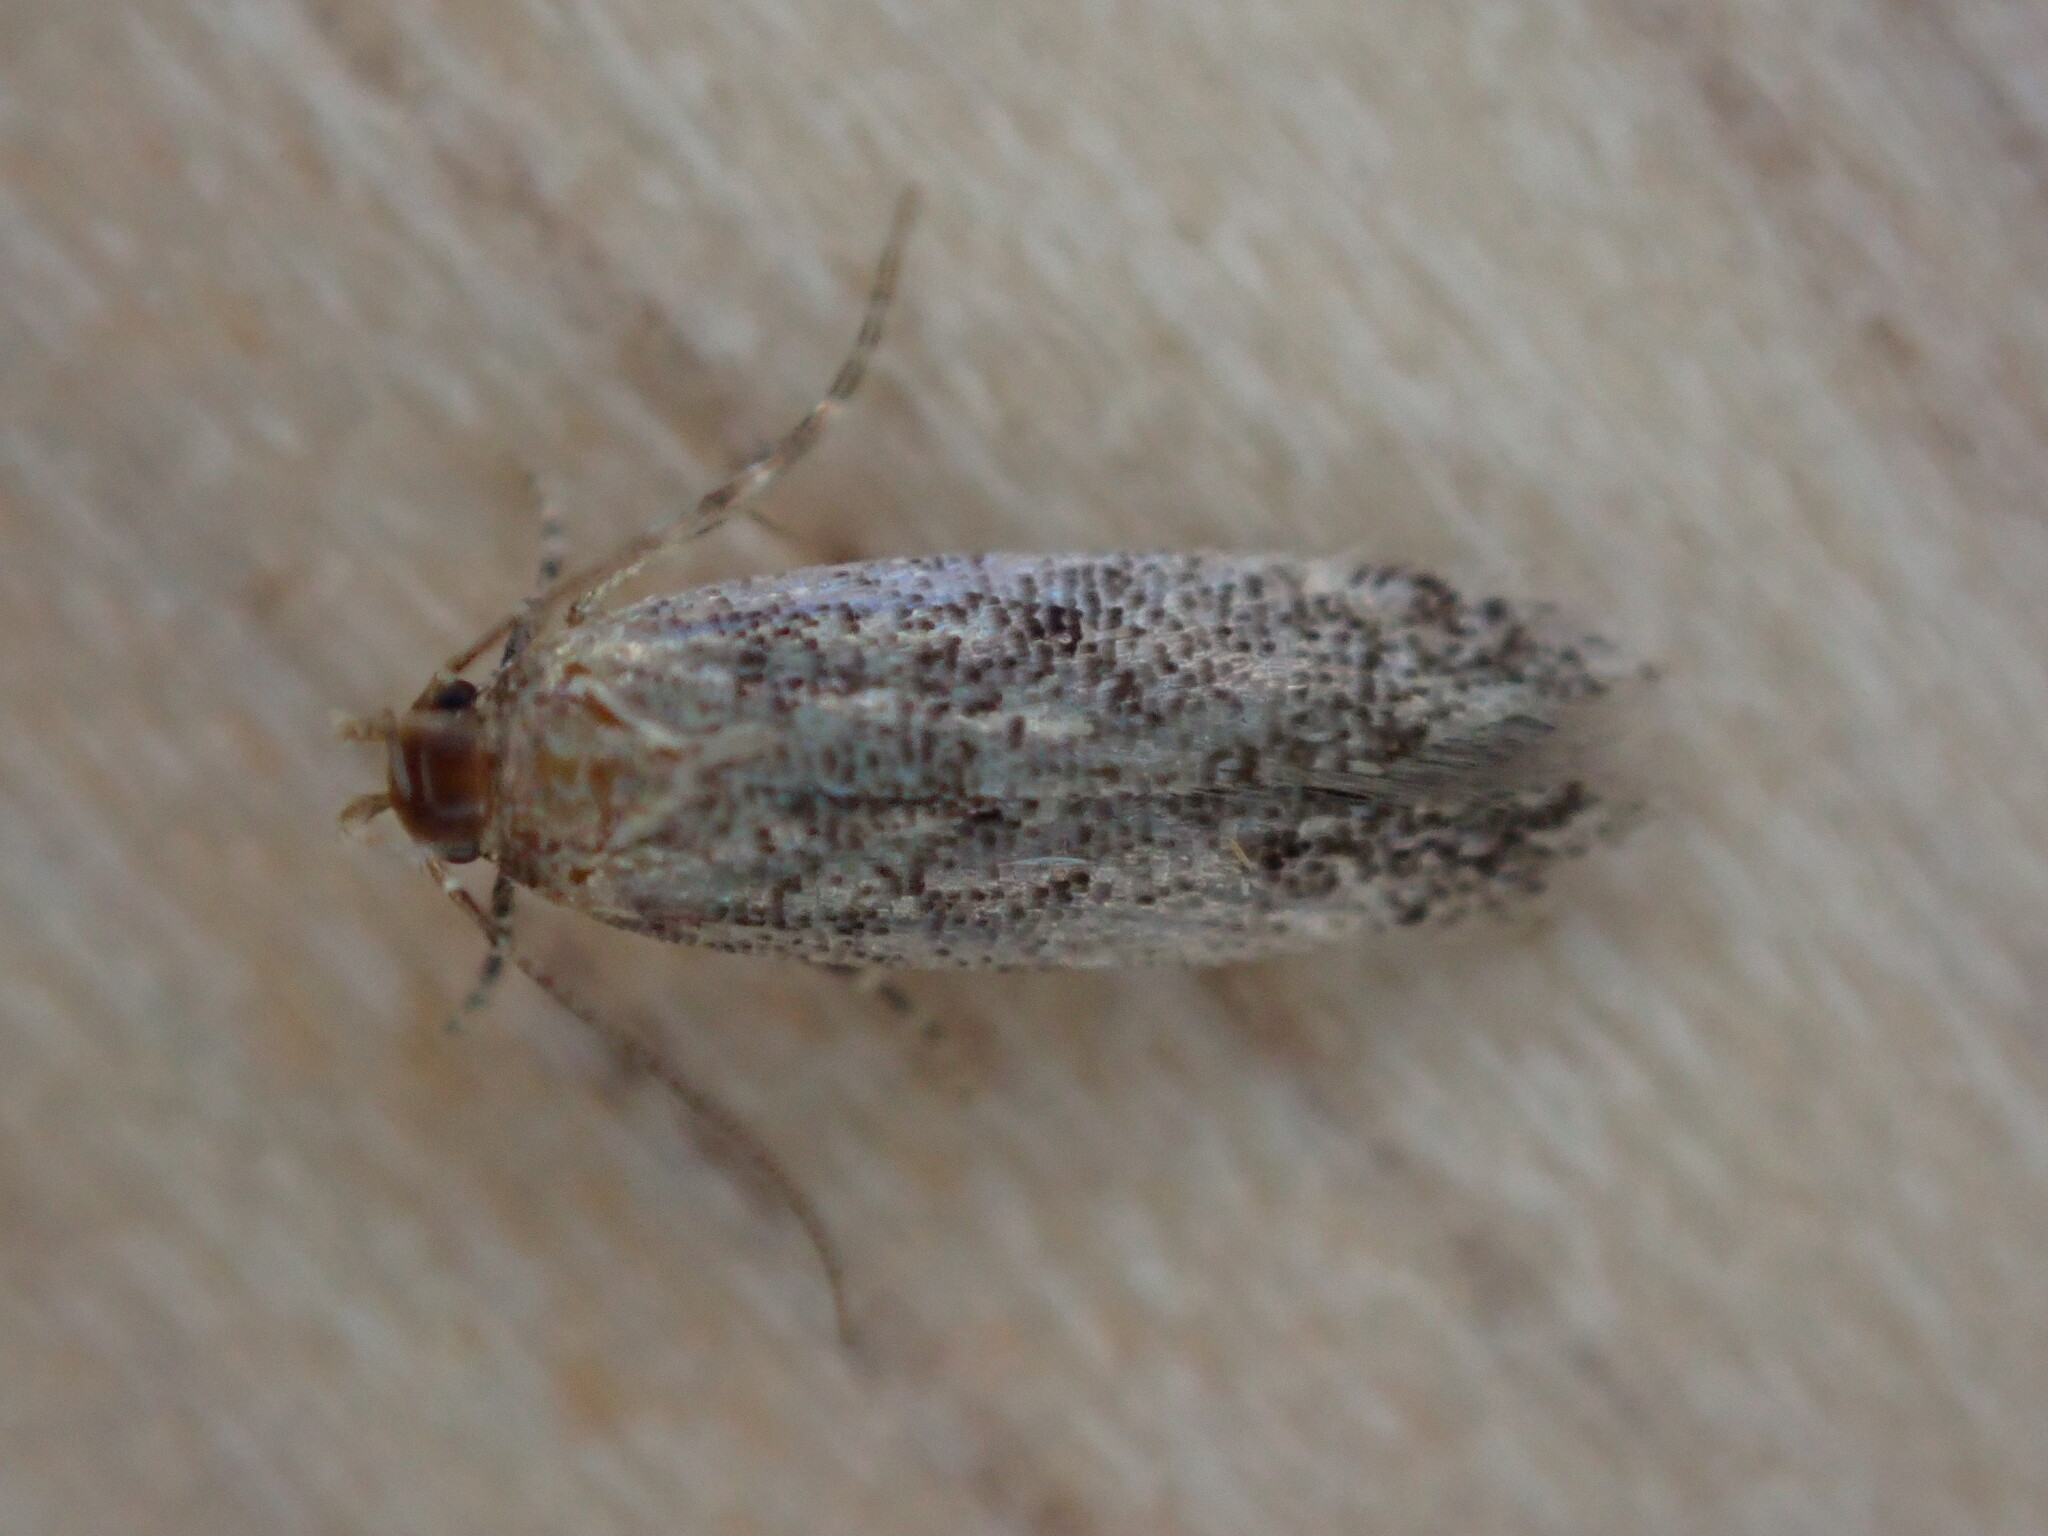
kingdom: Animalia
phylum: Arthropoda
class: Insecta
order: Lepidoptera
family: Gelechiidae
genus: Bryotropha
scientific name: Bryotropha affinis
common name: Dark groundling
